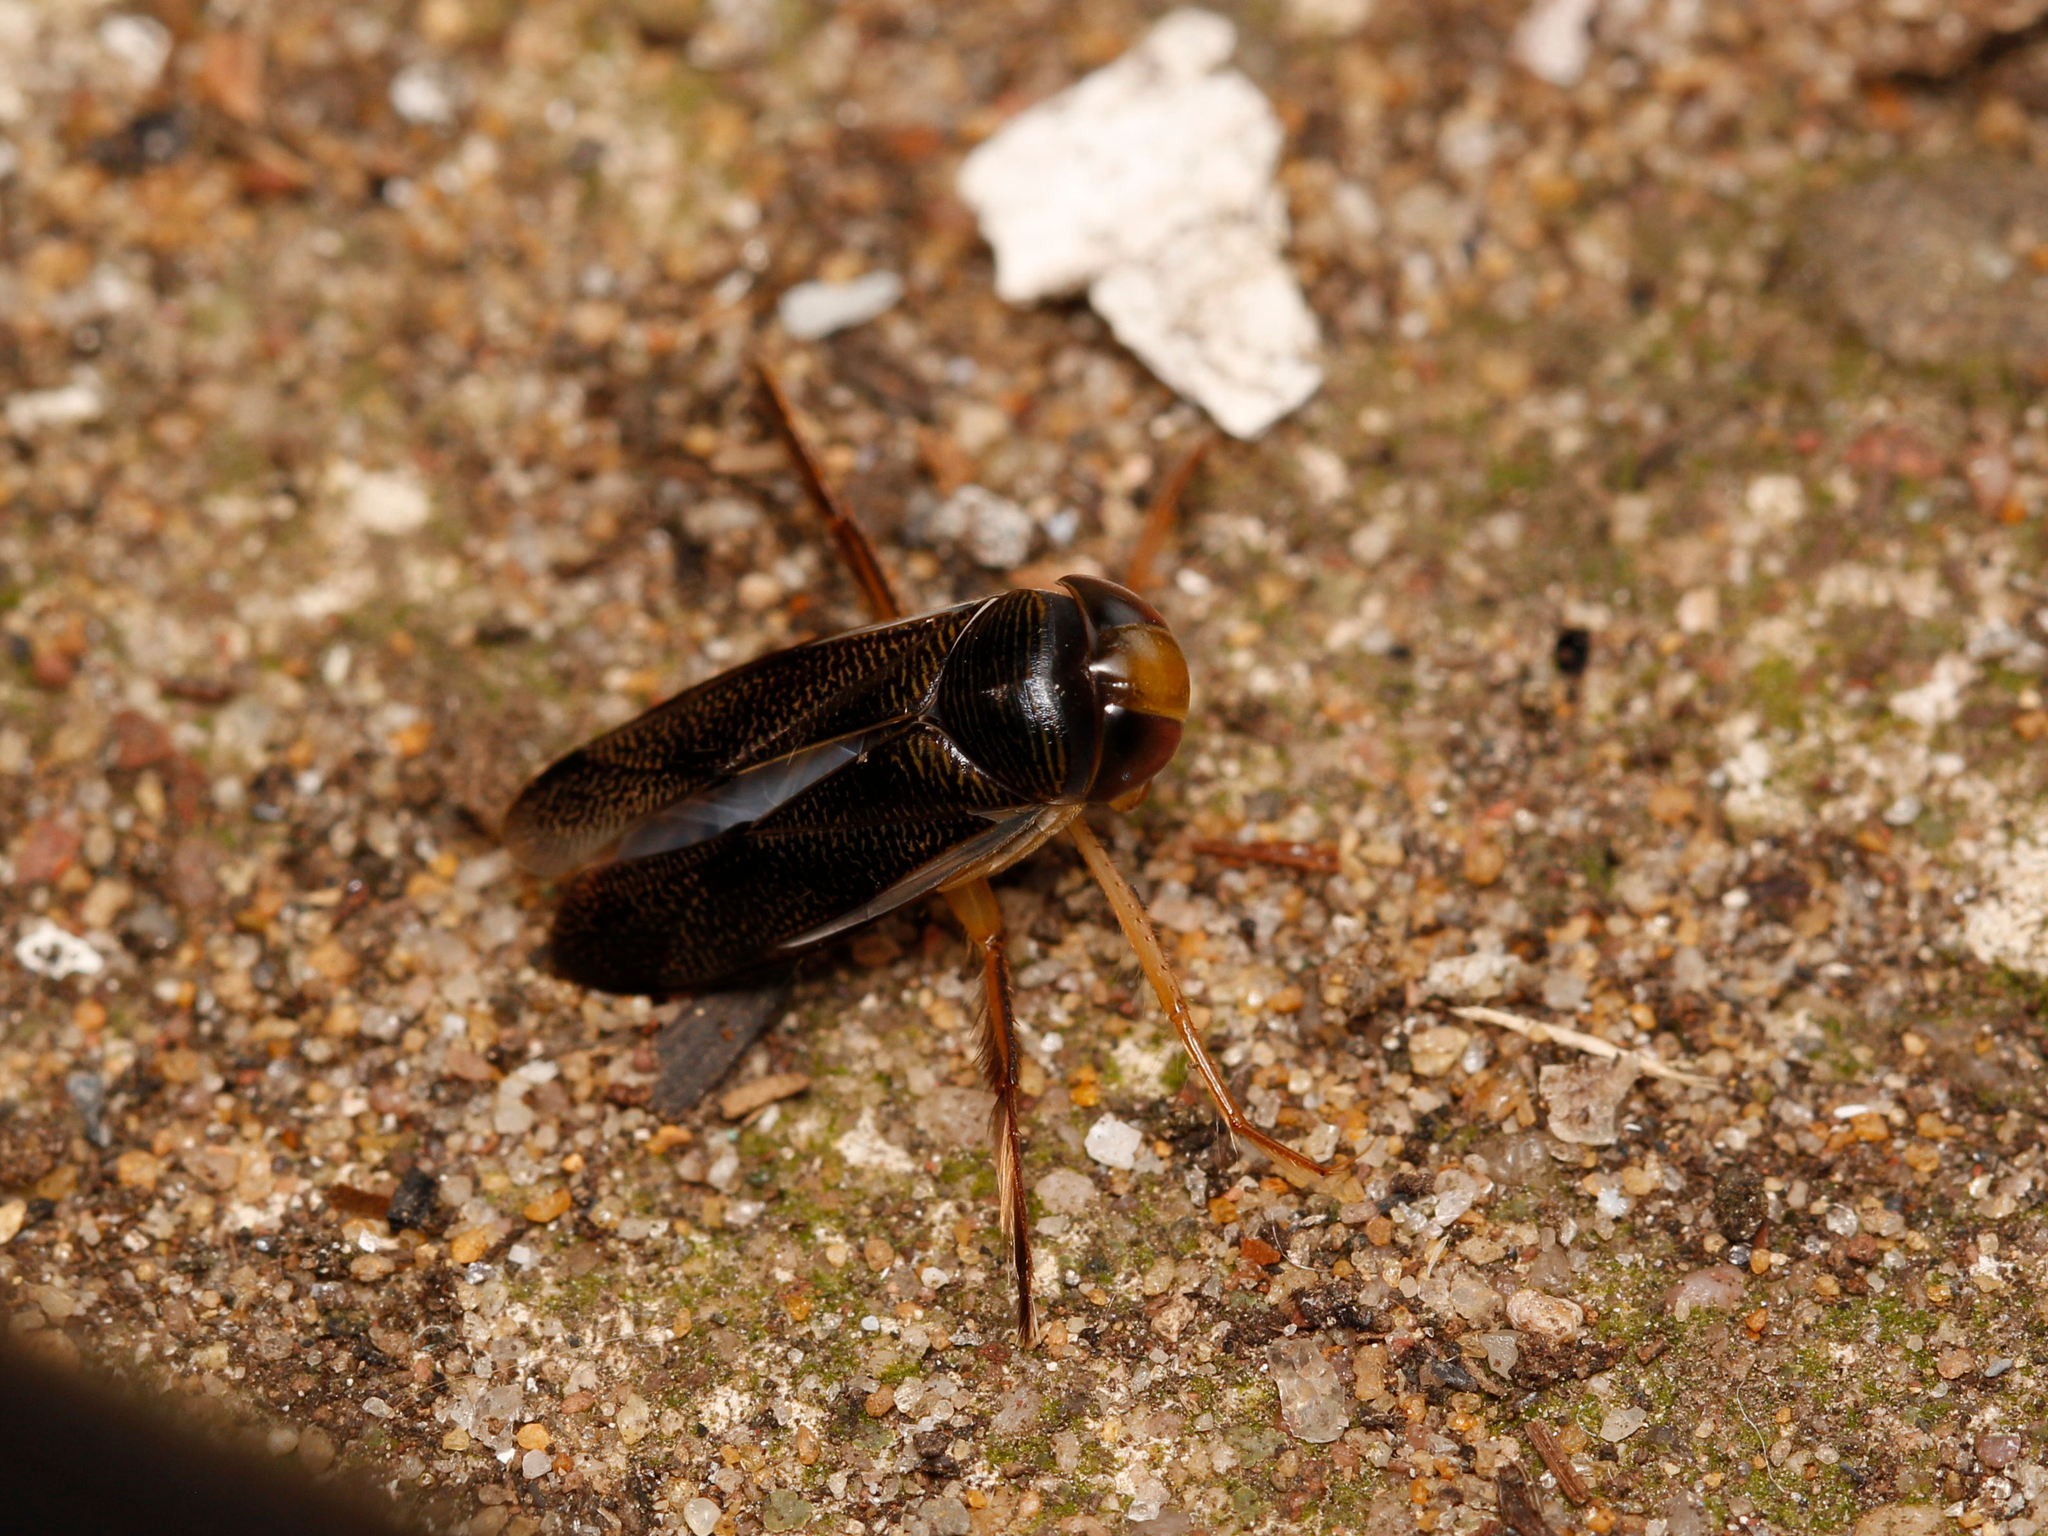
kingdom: Animalia
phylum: Arthropoda
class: Insecta
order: Hemiptera
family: Corixidae
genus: Hesperocorixa
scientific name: Hesperocorixa
